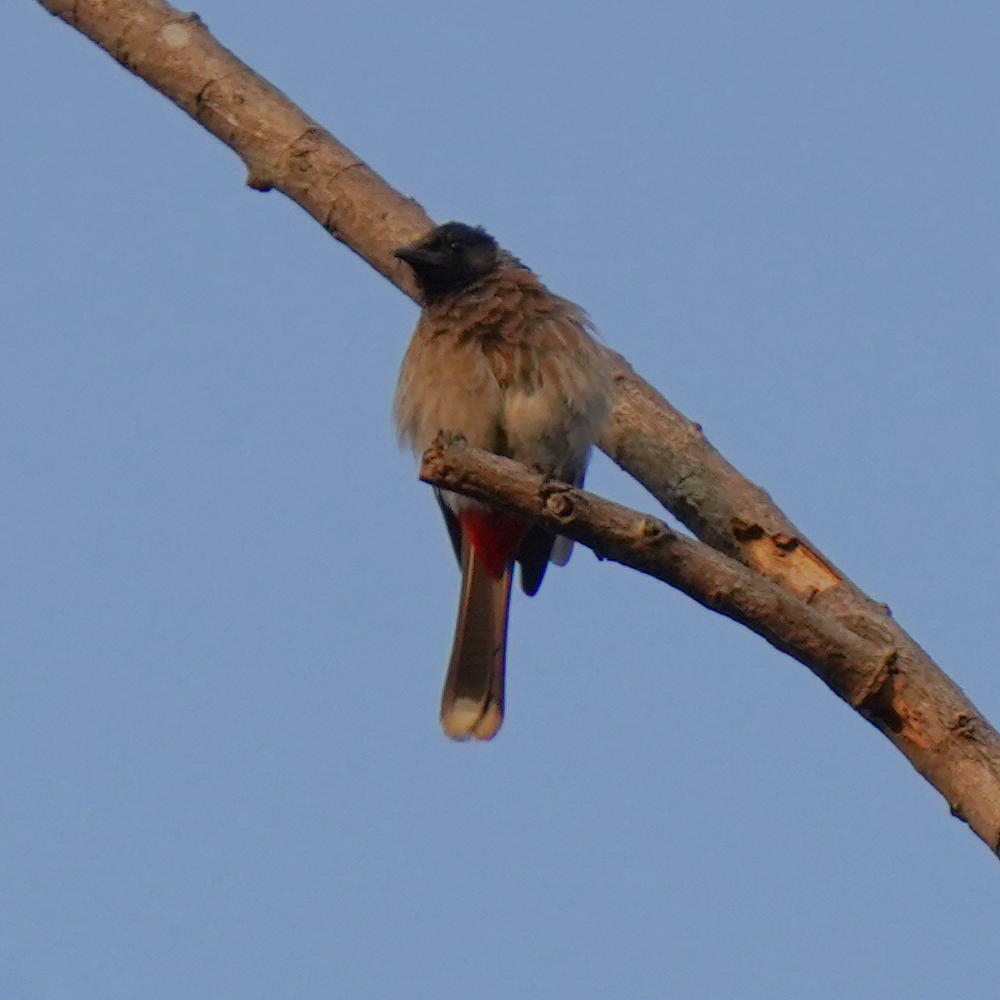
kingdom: Animalia
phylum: Chordata
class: Aves
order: Passeriformes
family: Pycnonotidae
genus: Pycnonotus
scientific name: Pycnonotus cafer
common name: Red-vented bulbul
